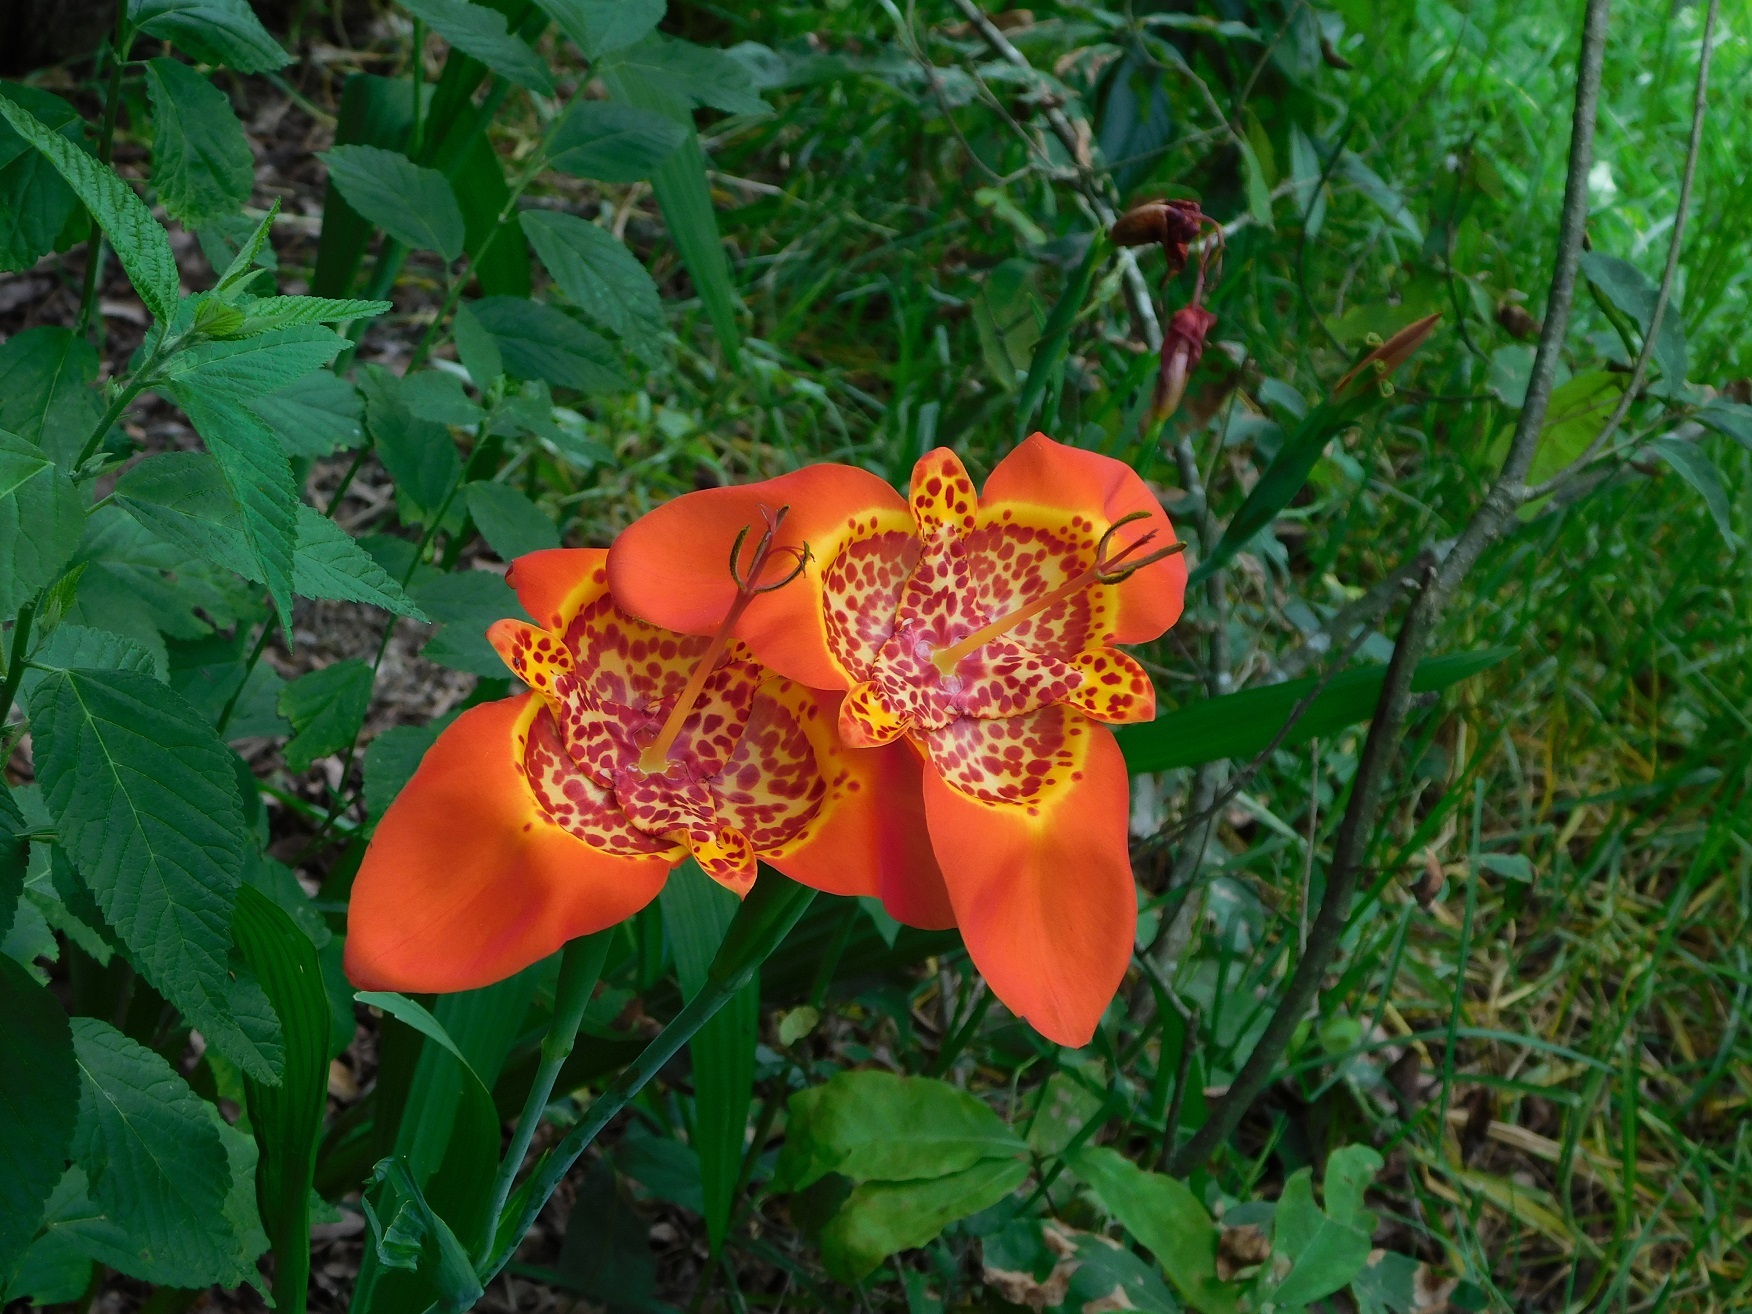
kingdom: Plantae
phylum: Tracheophyta
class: Liliopsida
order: Asparagales
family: Iridaceae
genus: Tigridia
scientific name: Tigridia pavonia
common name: Peacock-flower
